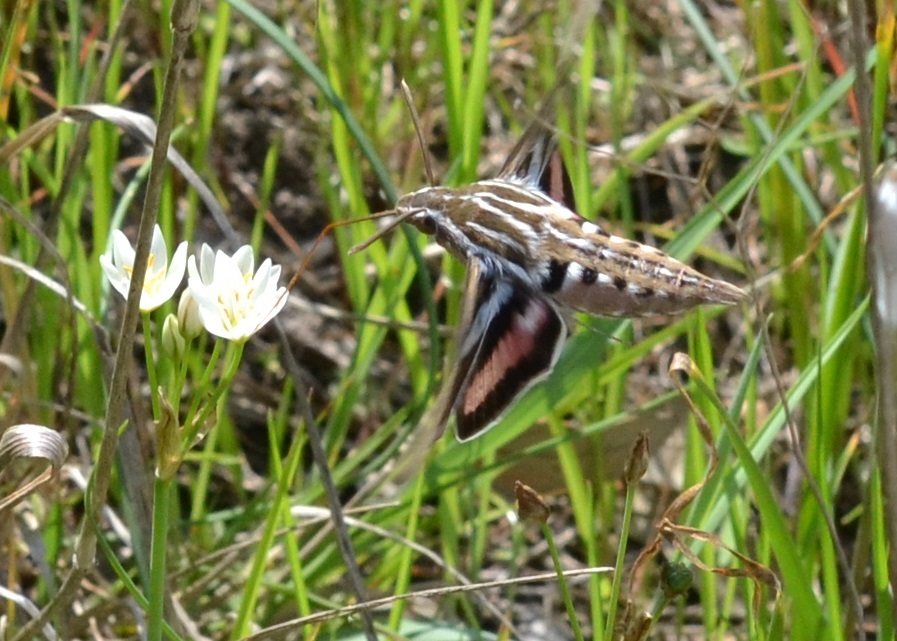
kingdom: Animalia
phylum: Arthropoda
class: Insecta
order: Lepidoptera
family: Sphingidae
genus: Hyles
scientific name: Hyles lineata
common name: White-lined sphinx
